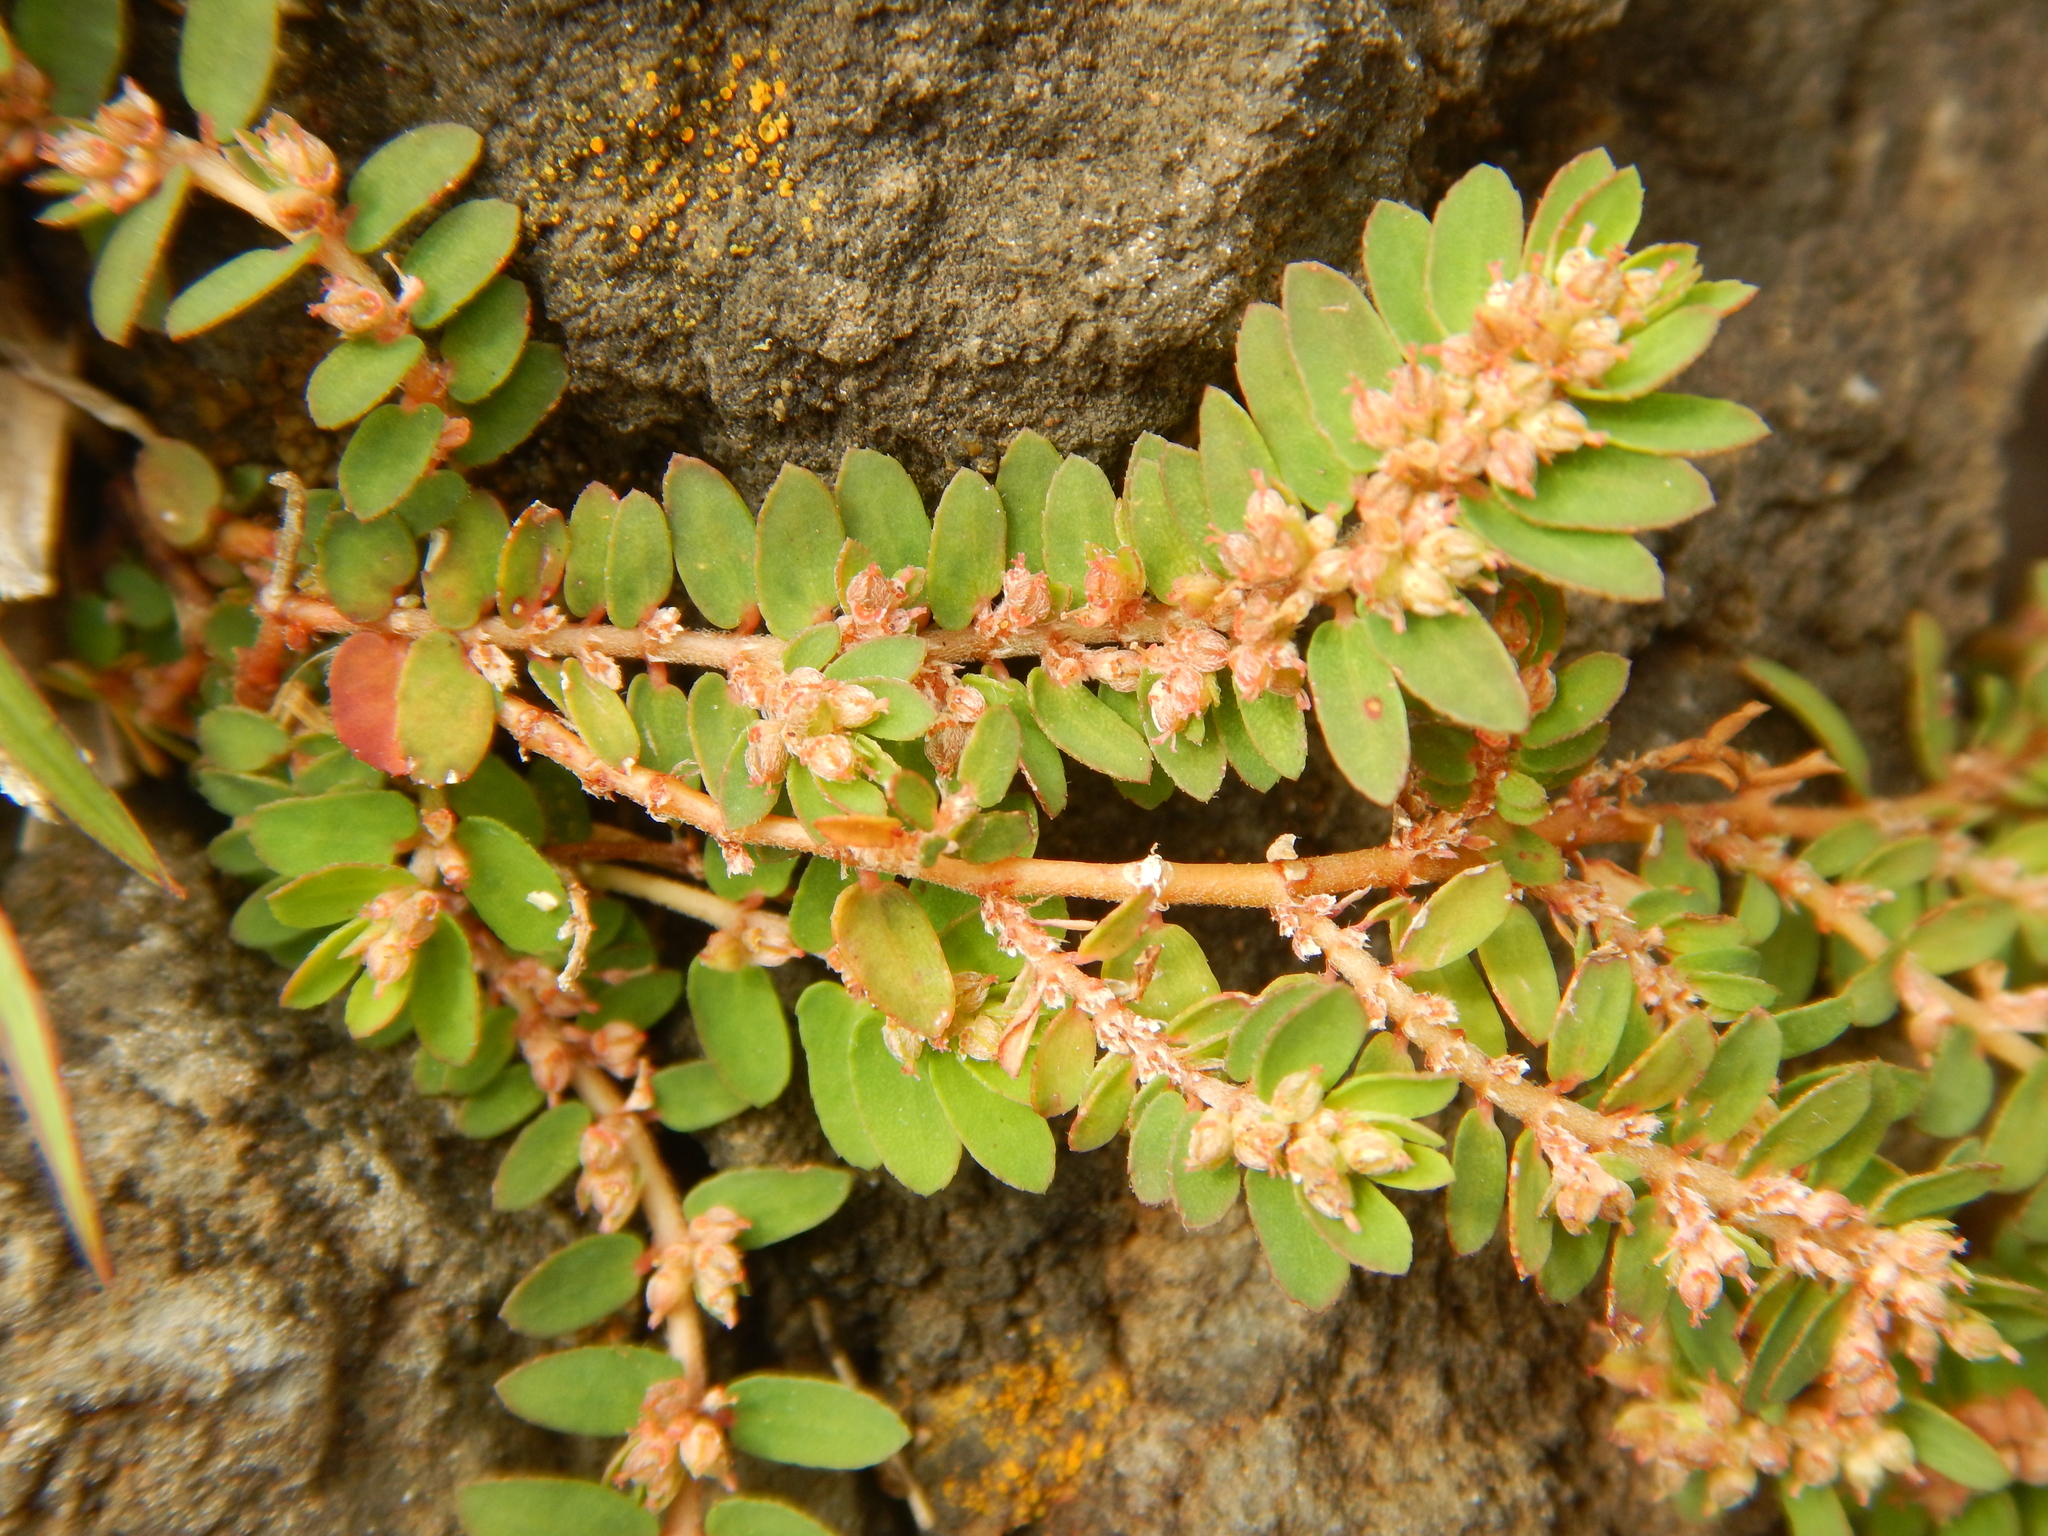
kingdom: Plantae
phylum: Tracheophyta
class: Magnoliopsida
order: Malpighiales
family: Euphorbiaceae
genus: Euphorbia
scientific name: Euphorbia thymifolia
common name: Gulf sandmat
